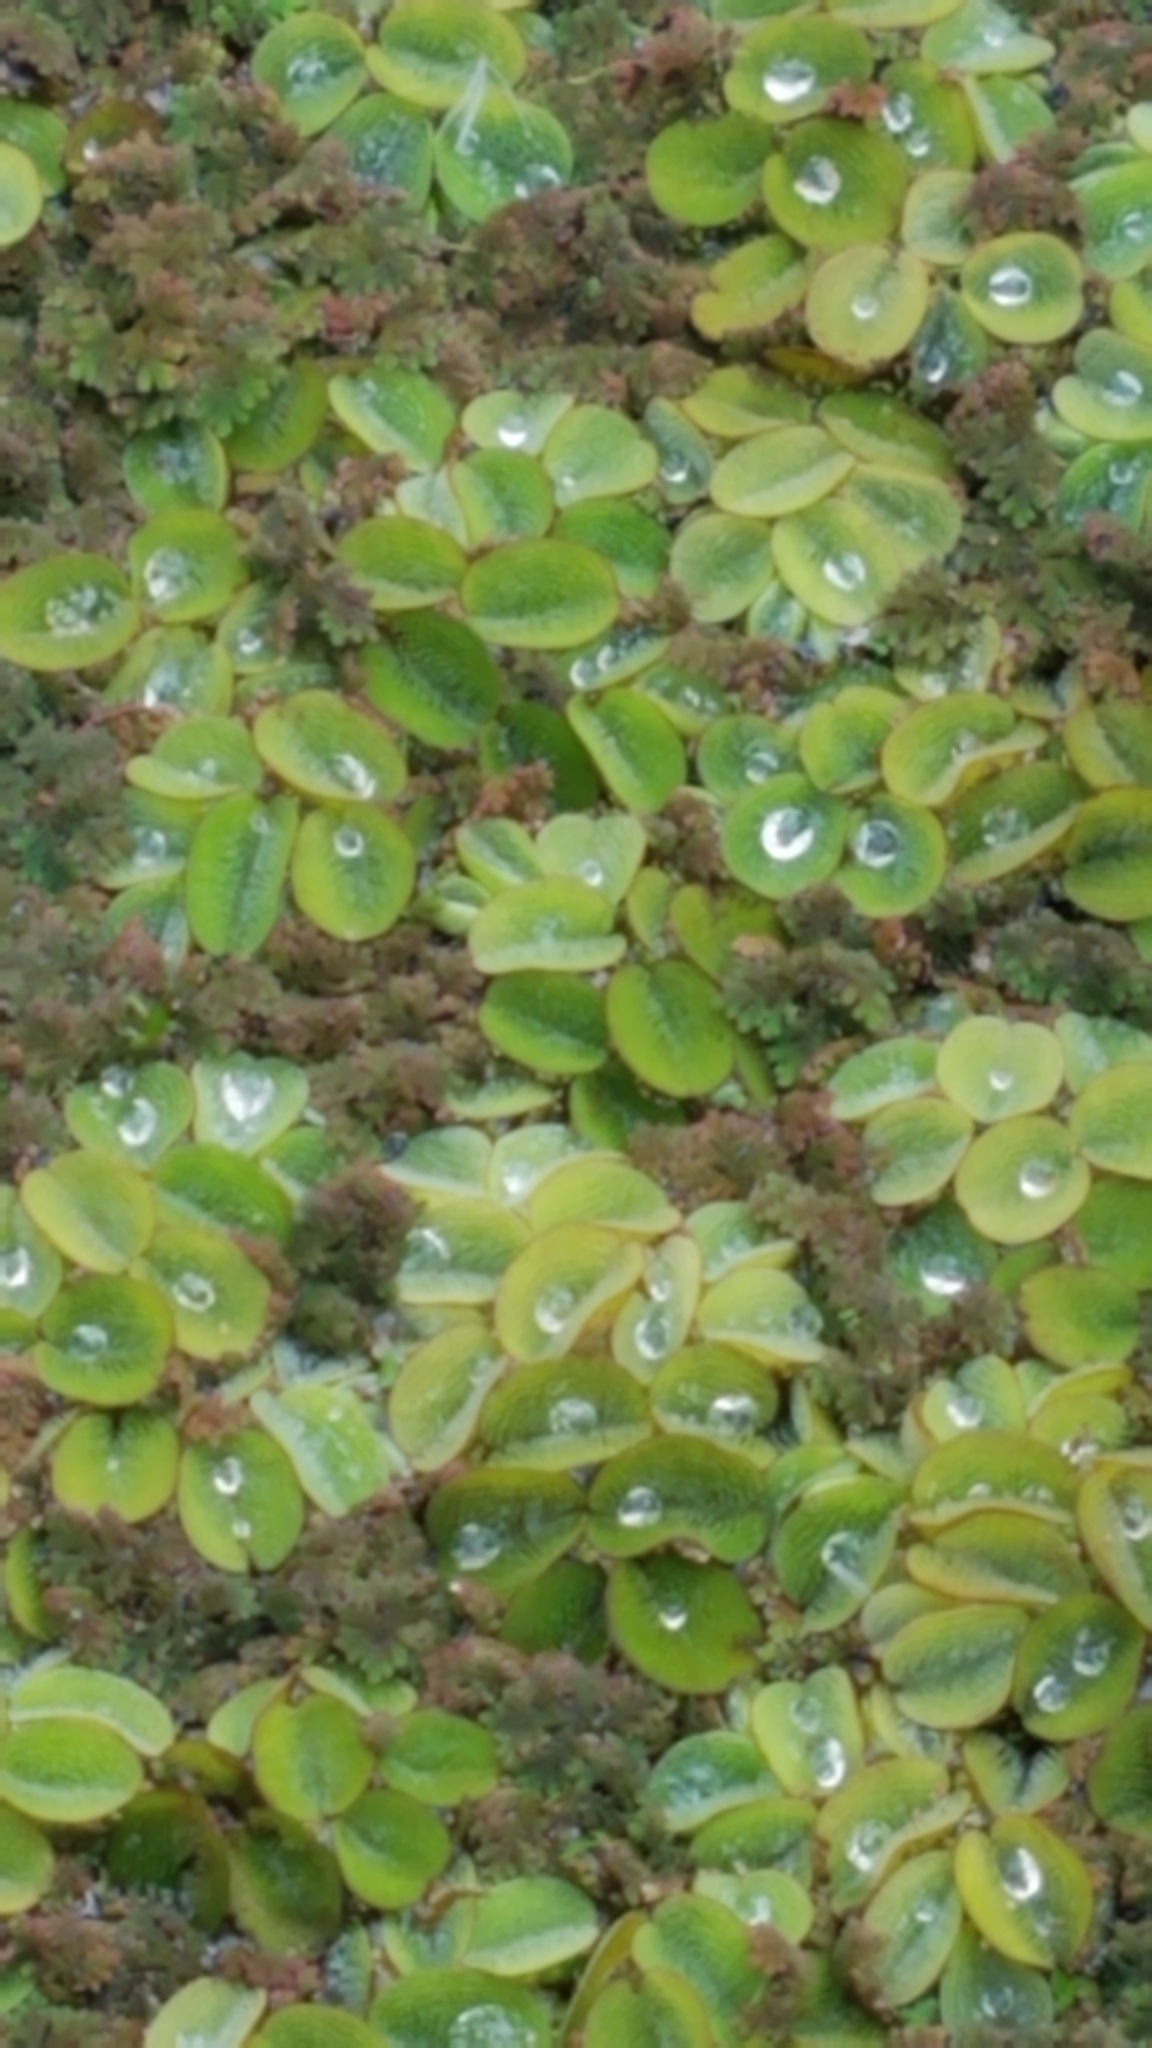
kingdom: Plantae
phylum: Tracheophyta
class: Polypodiopsida
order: Salviniales
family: Salviniaceae
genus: Salvinia
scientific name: Salvinia minima
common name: Water spangles
